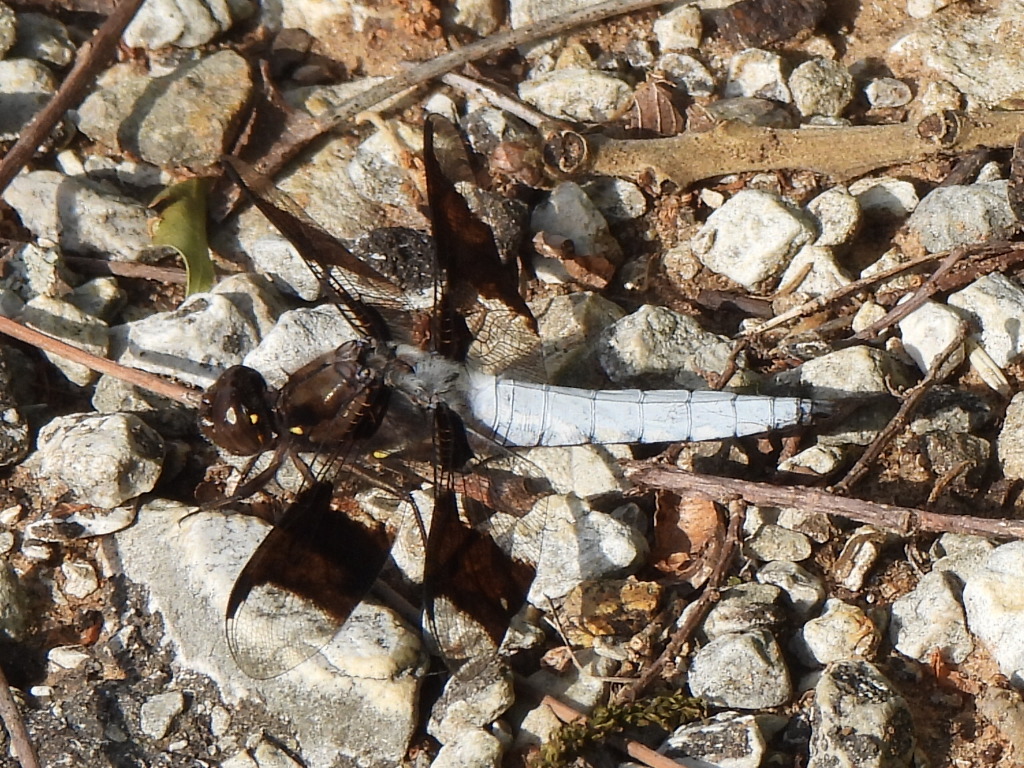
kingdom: Animalia
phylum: Arthropoda
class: Insecta
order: Odonata
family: Libellulidae
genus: Plathemis
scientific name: Plathemis lydia
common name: Common whitetail
